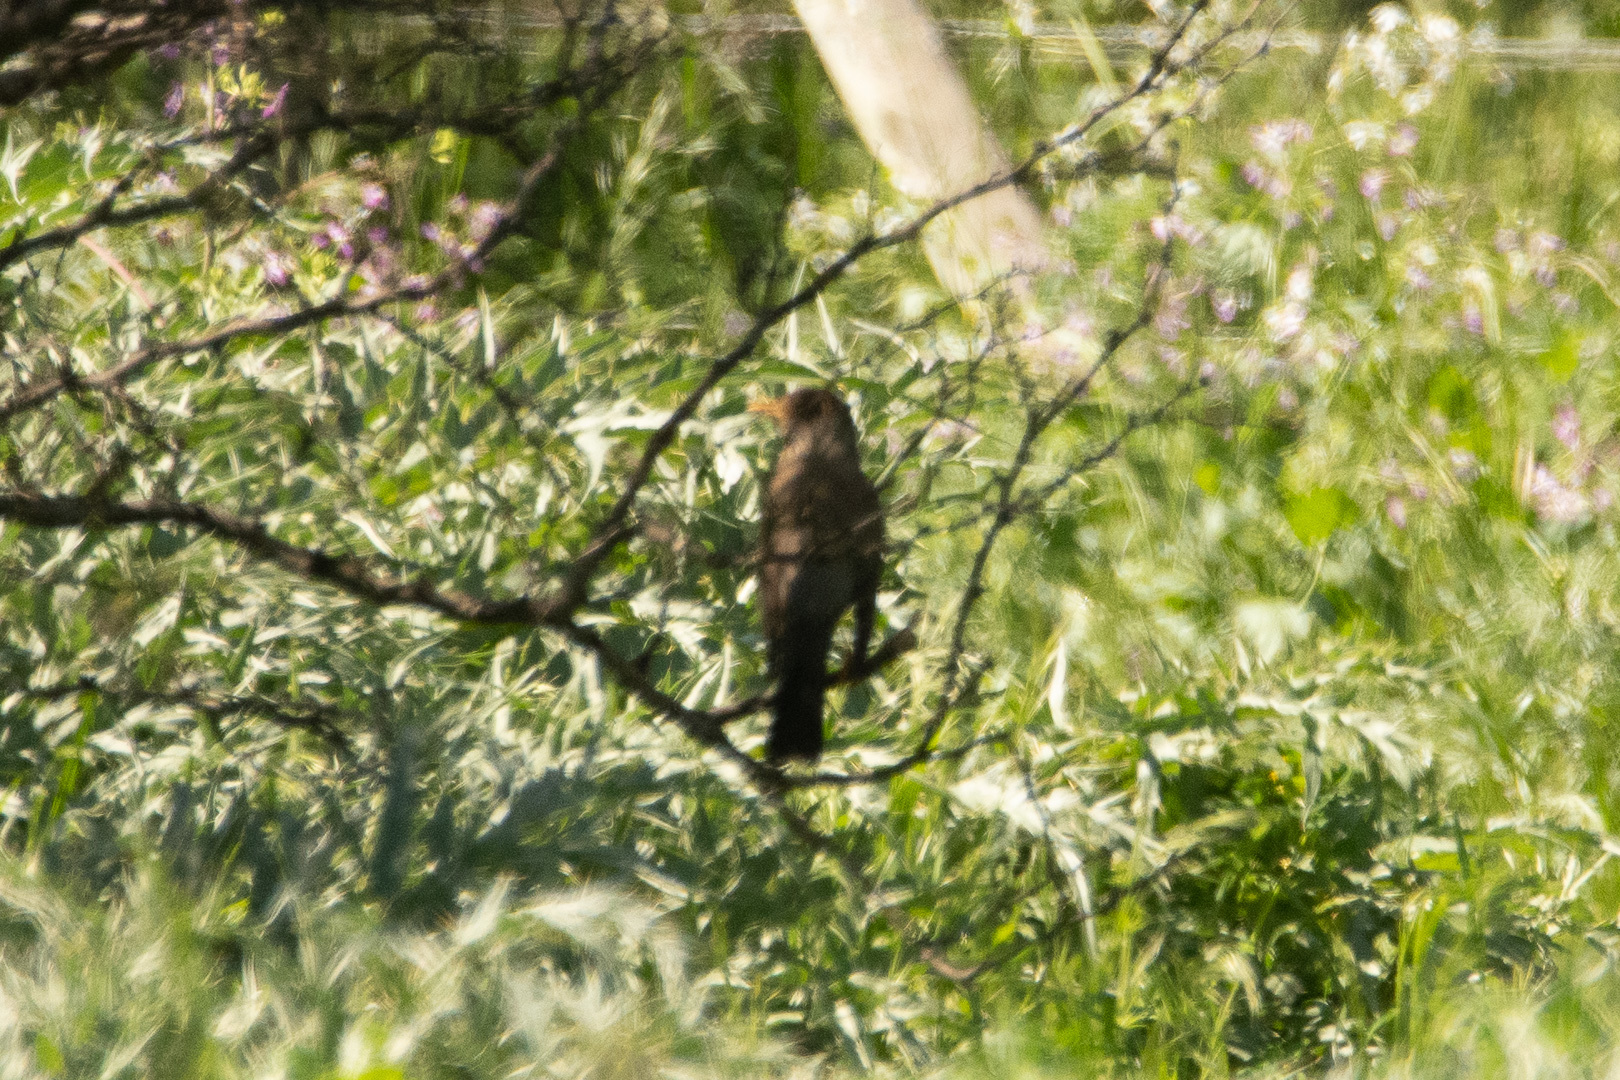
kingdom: Animalia
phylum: Chordata
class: Aves
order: Passeriformes
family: Turdidae
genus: Turdus
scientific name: Turdus falcklandii
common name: Austral thrush
